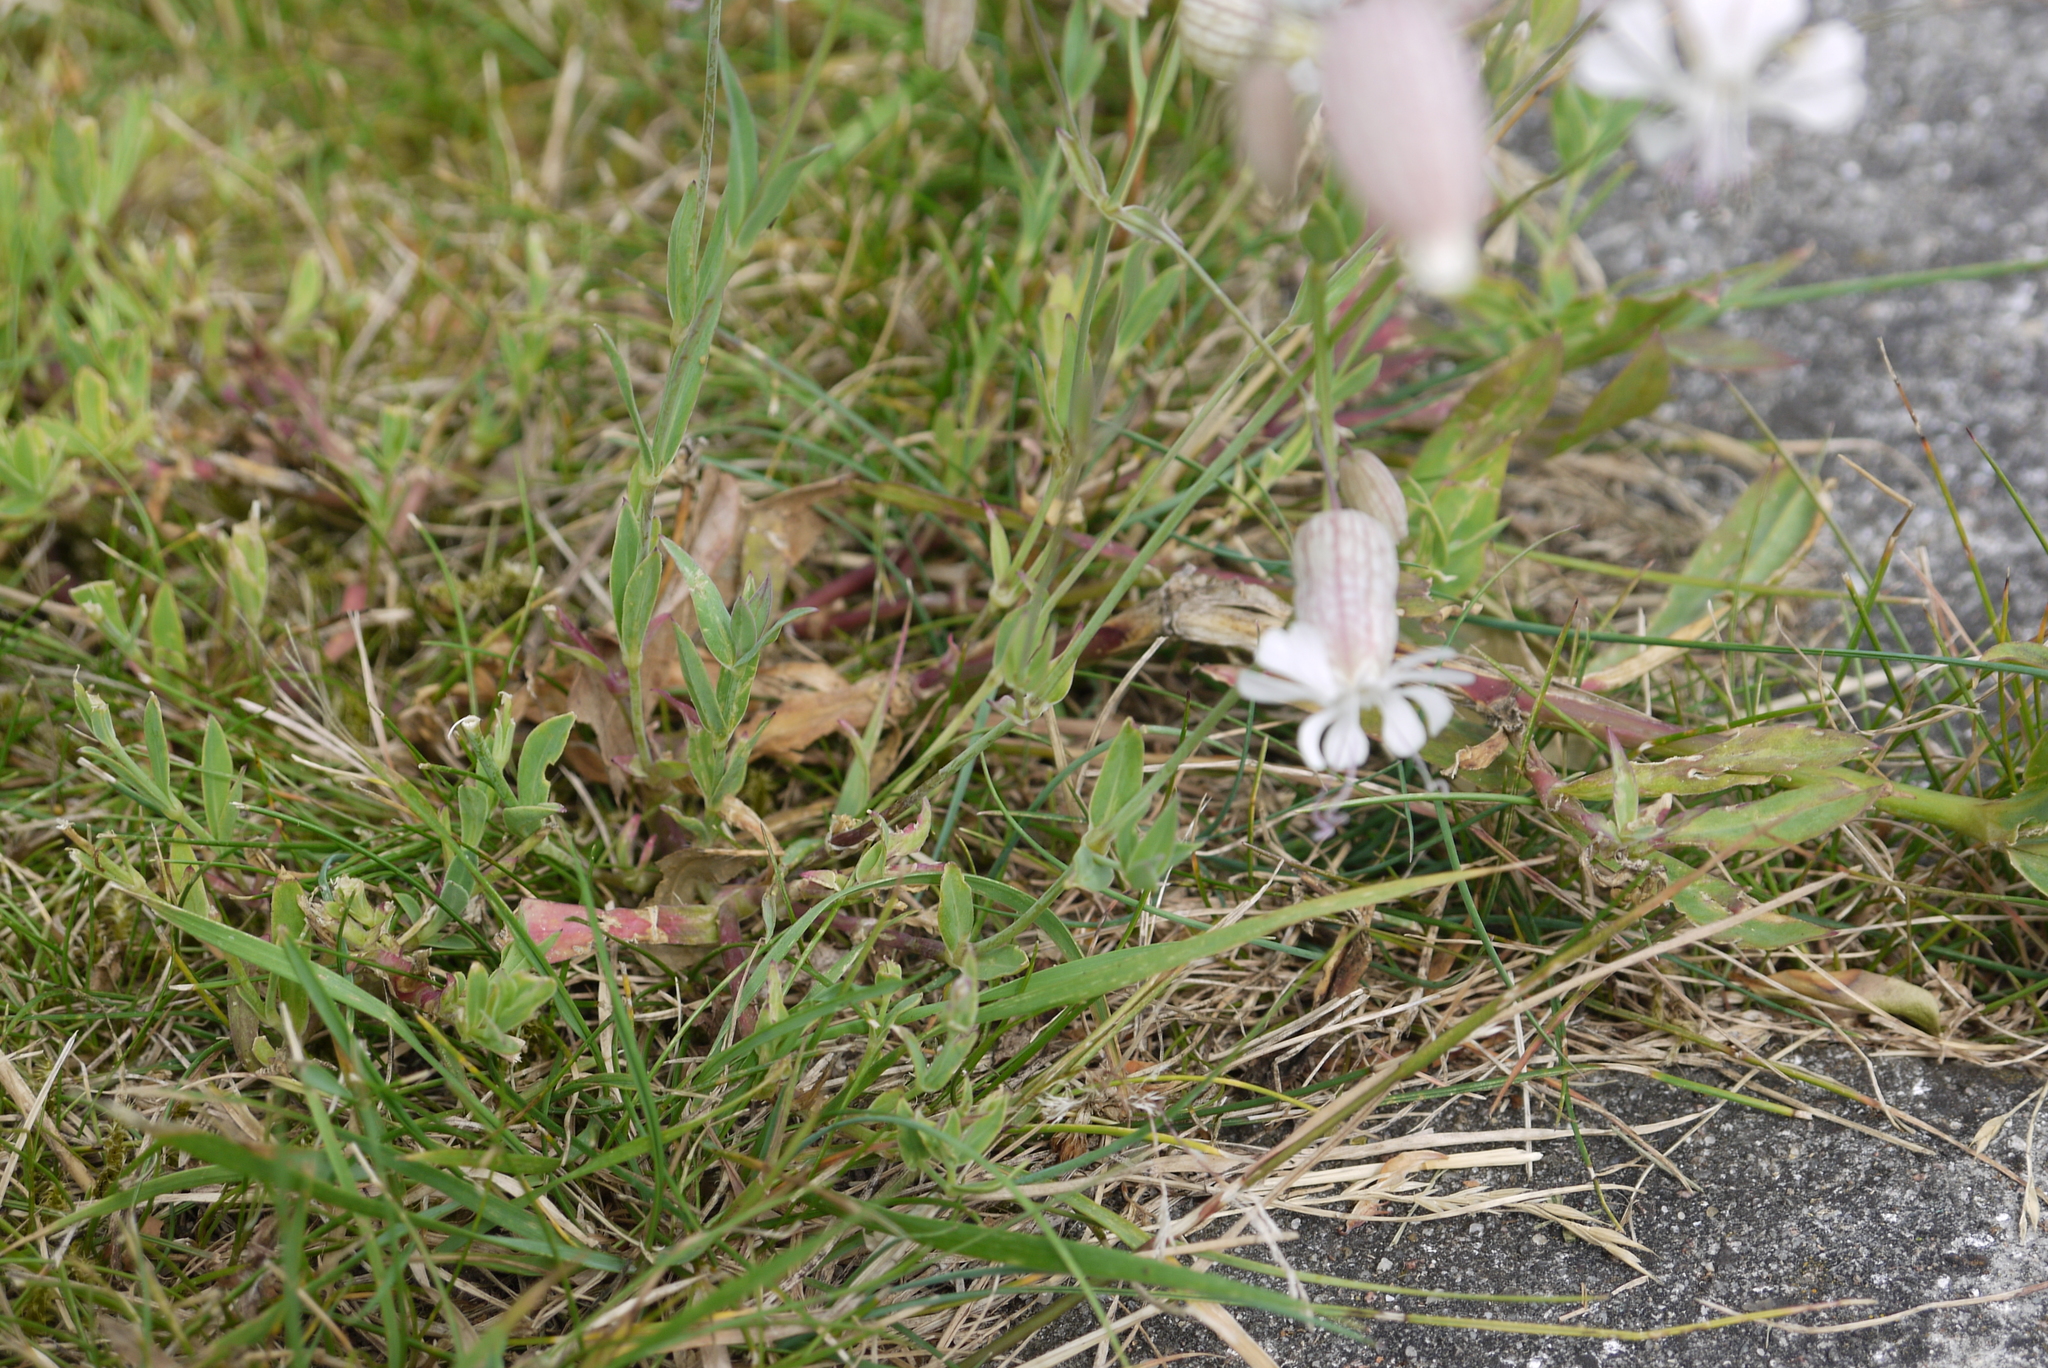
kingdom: Plantae
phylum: Tracheophyta
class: Magnoliopsida
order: Caryophyllales
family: Caryophyllaceae
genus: Silene
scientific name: Silene vulgaris
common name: Bladder campion
